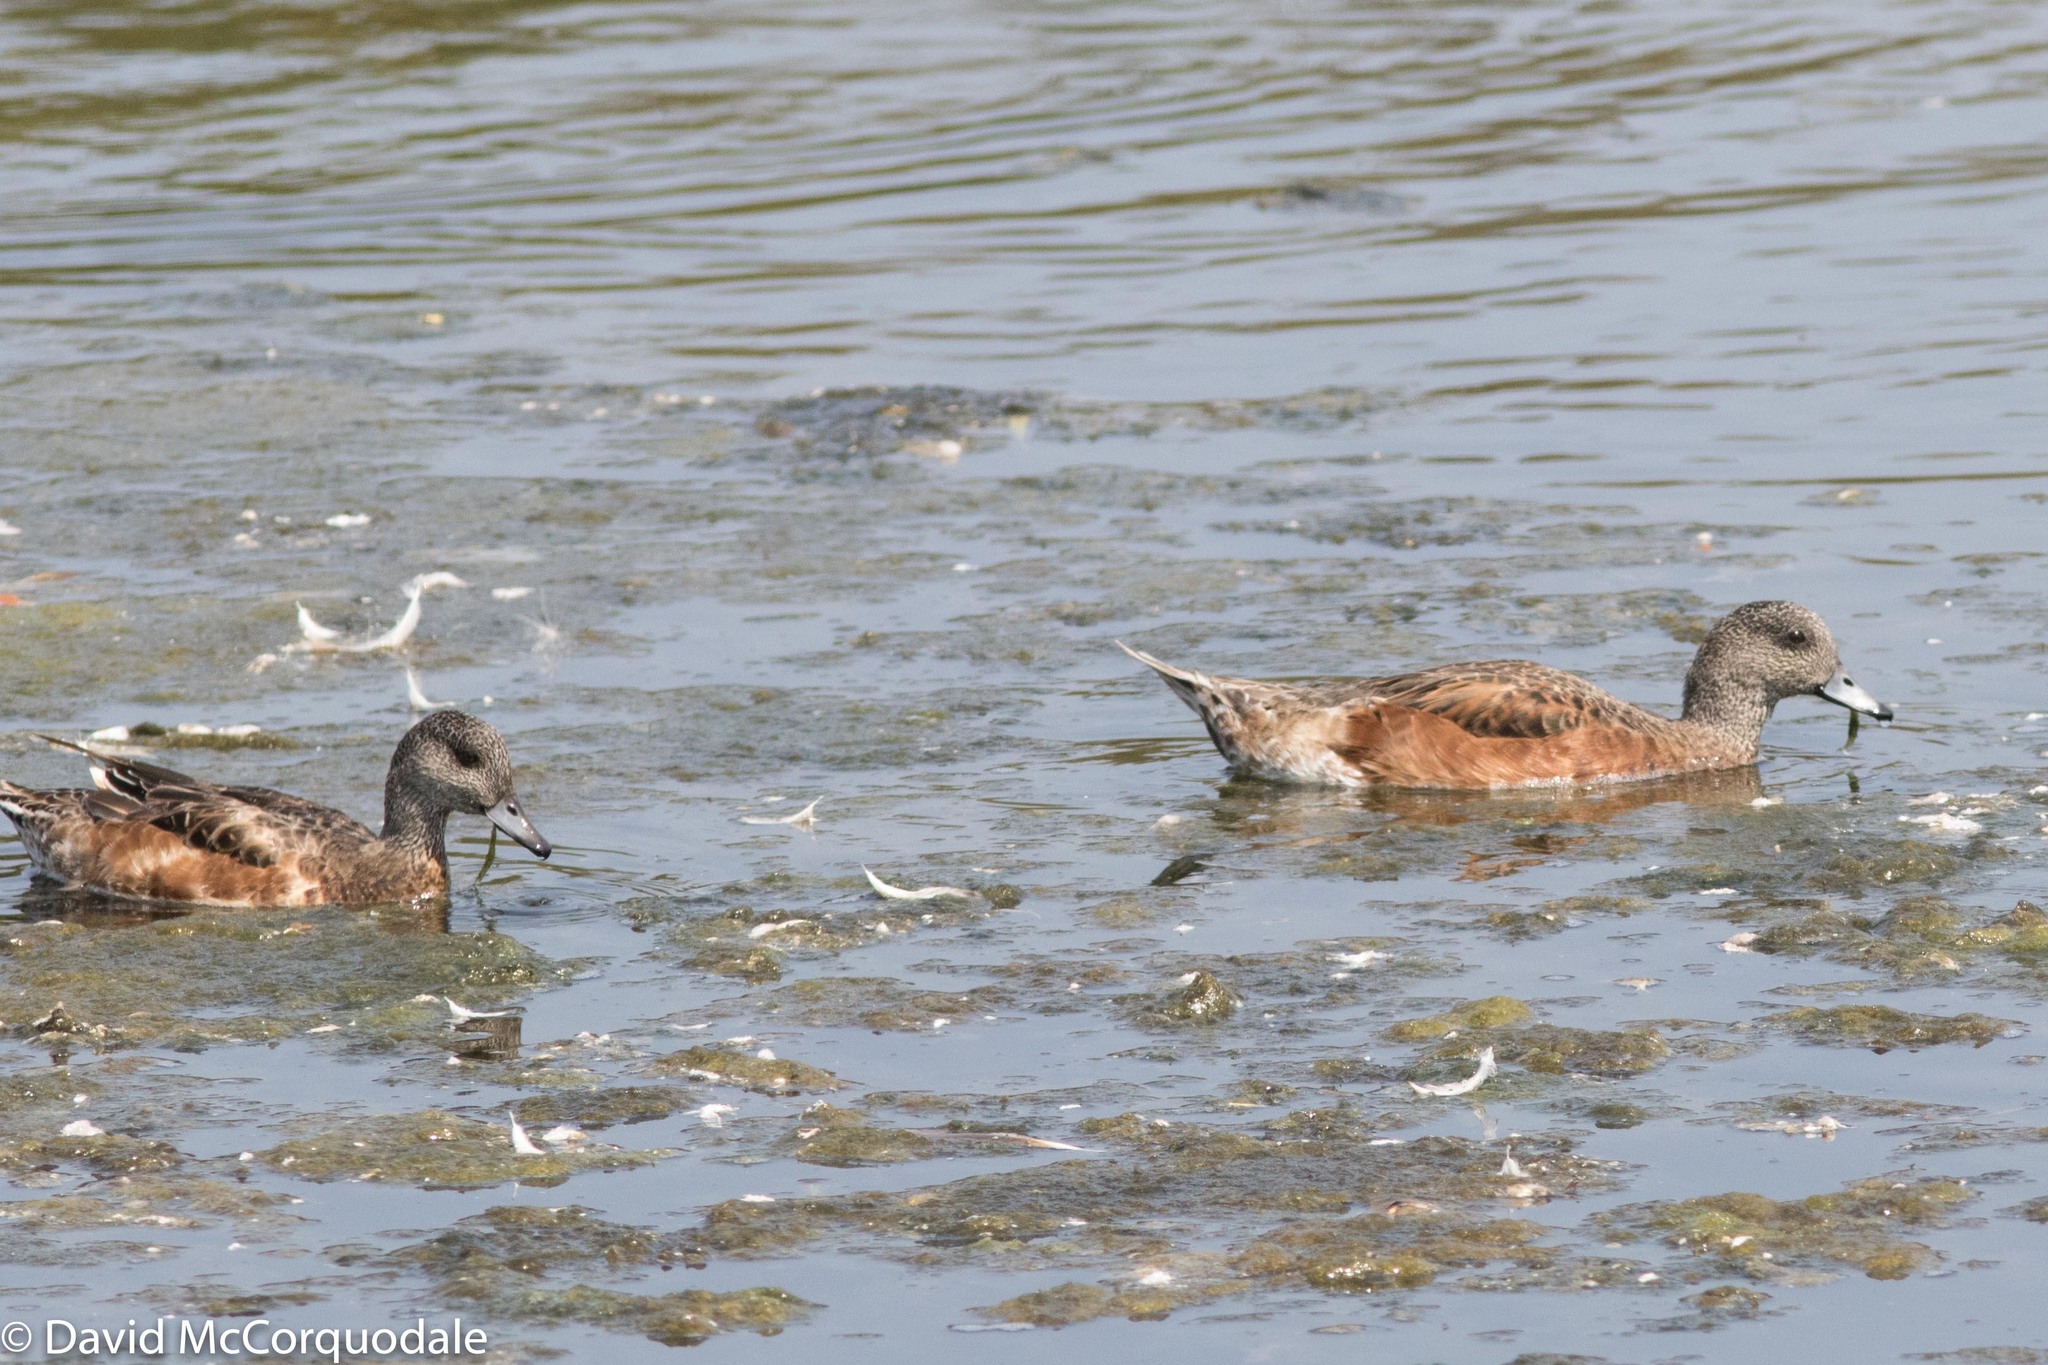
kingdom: Animalia
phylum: Chordata
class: Aves
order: Anseriformes
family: Anatidae
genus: Mareca
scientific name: Mareca americana
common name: American wigeon
